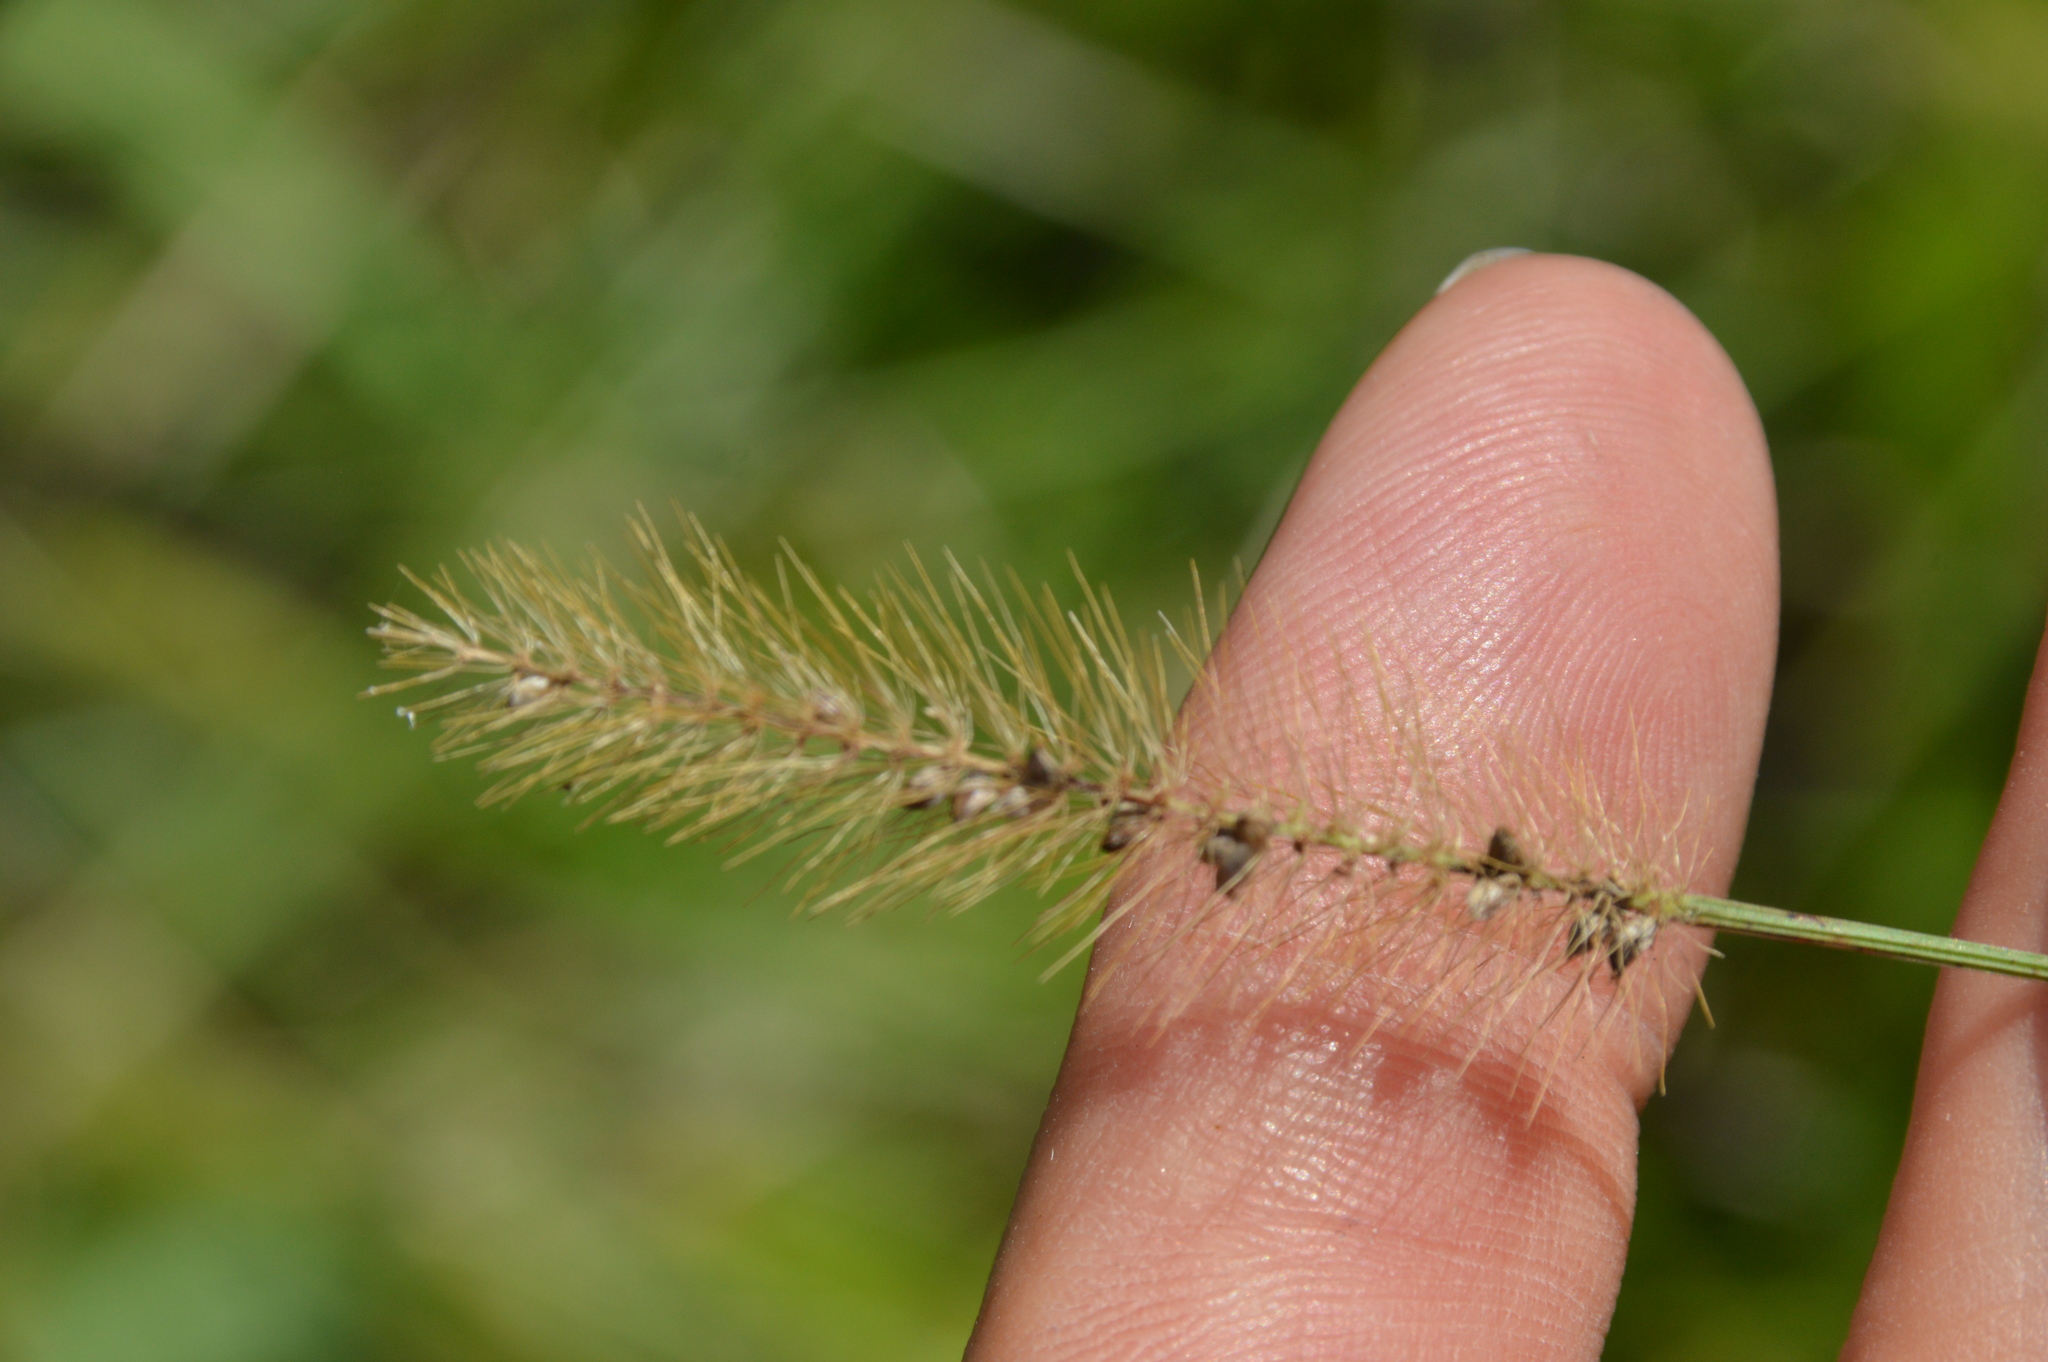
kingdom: Plantae
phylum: Tracheophyta
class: Liliopsida
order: Poales
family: Poaceae
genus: Setaria
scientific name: Setaria parviflora
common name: Knotroot bristle-grass
